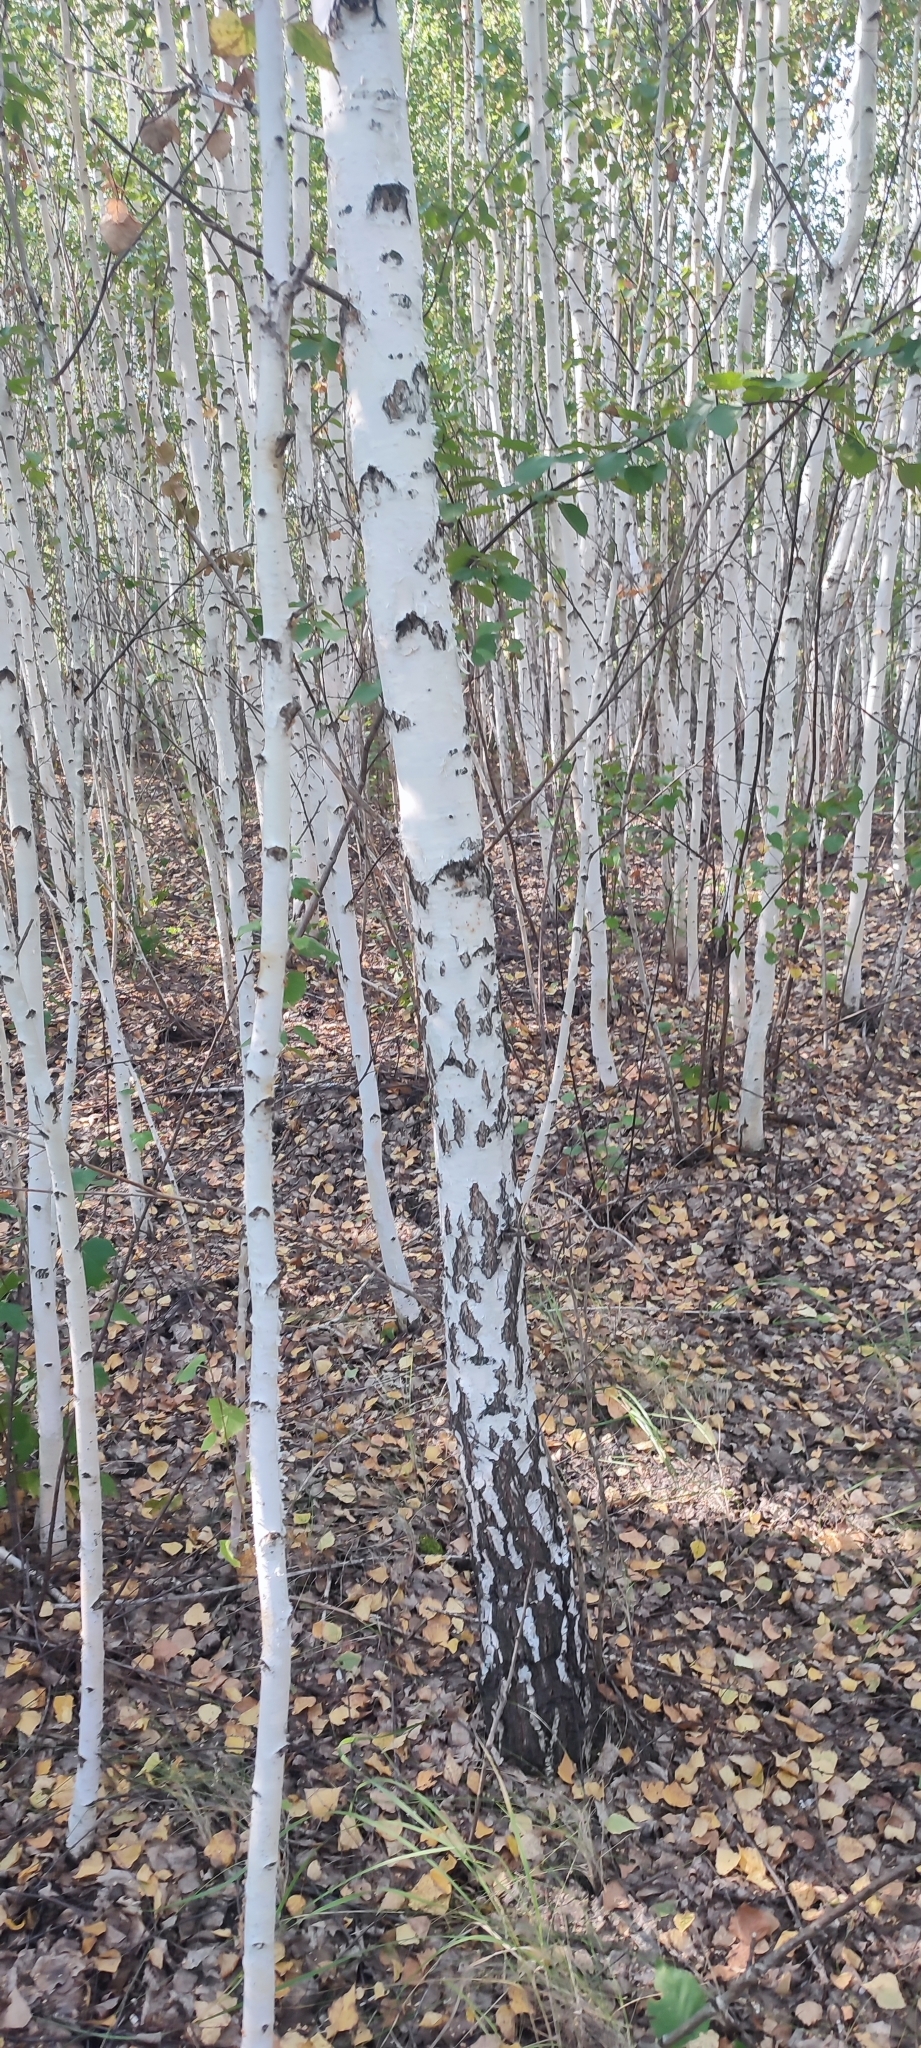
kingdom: Plantae
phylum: Tracheophyta
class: Magnoliopsida
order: Fagales
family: Betulaceae
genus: Betula
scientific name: Betula pendula
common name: Silver birch
